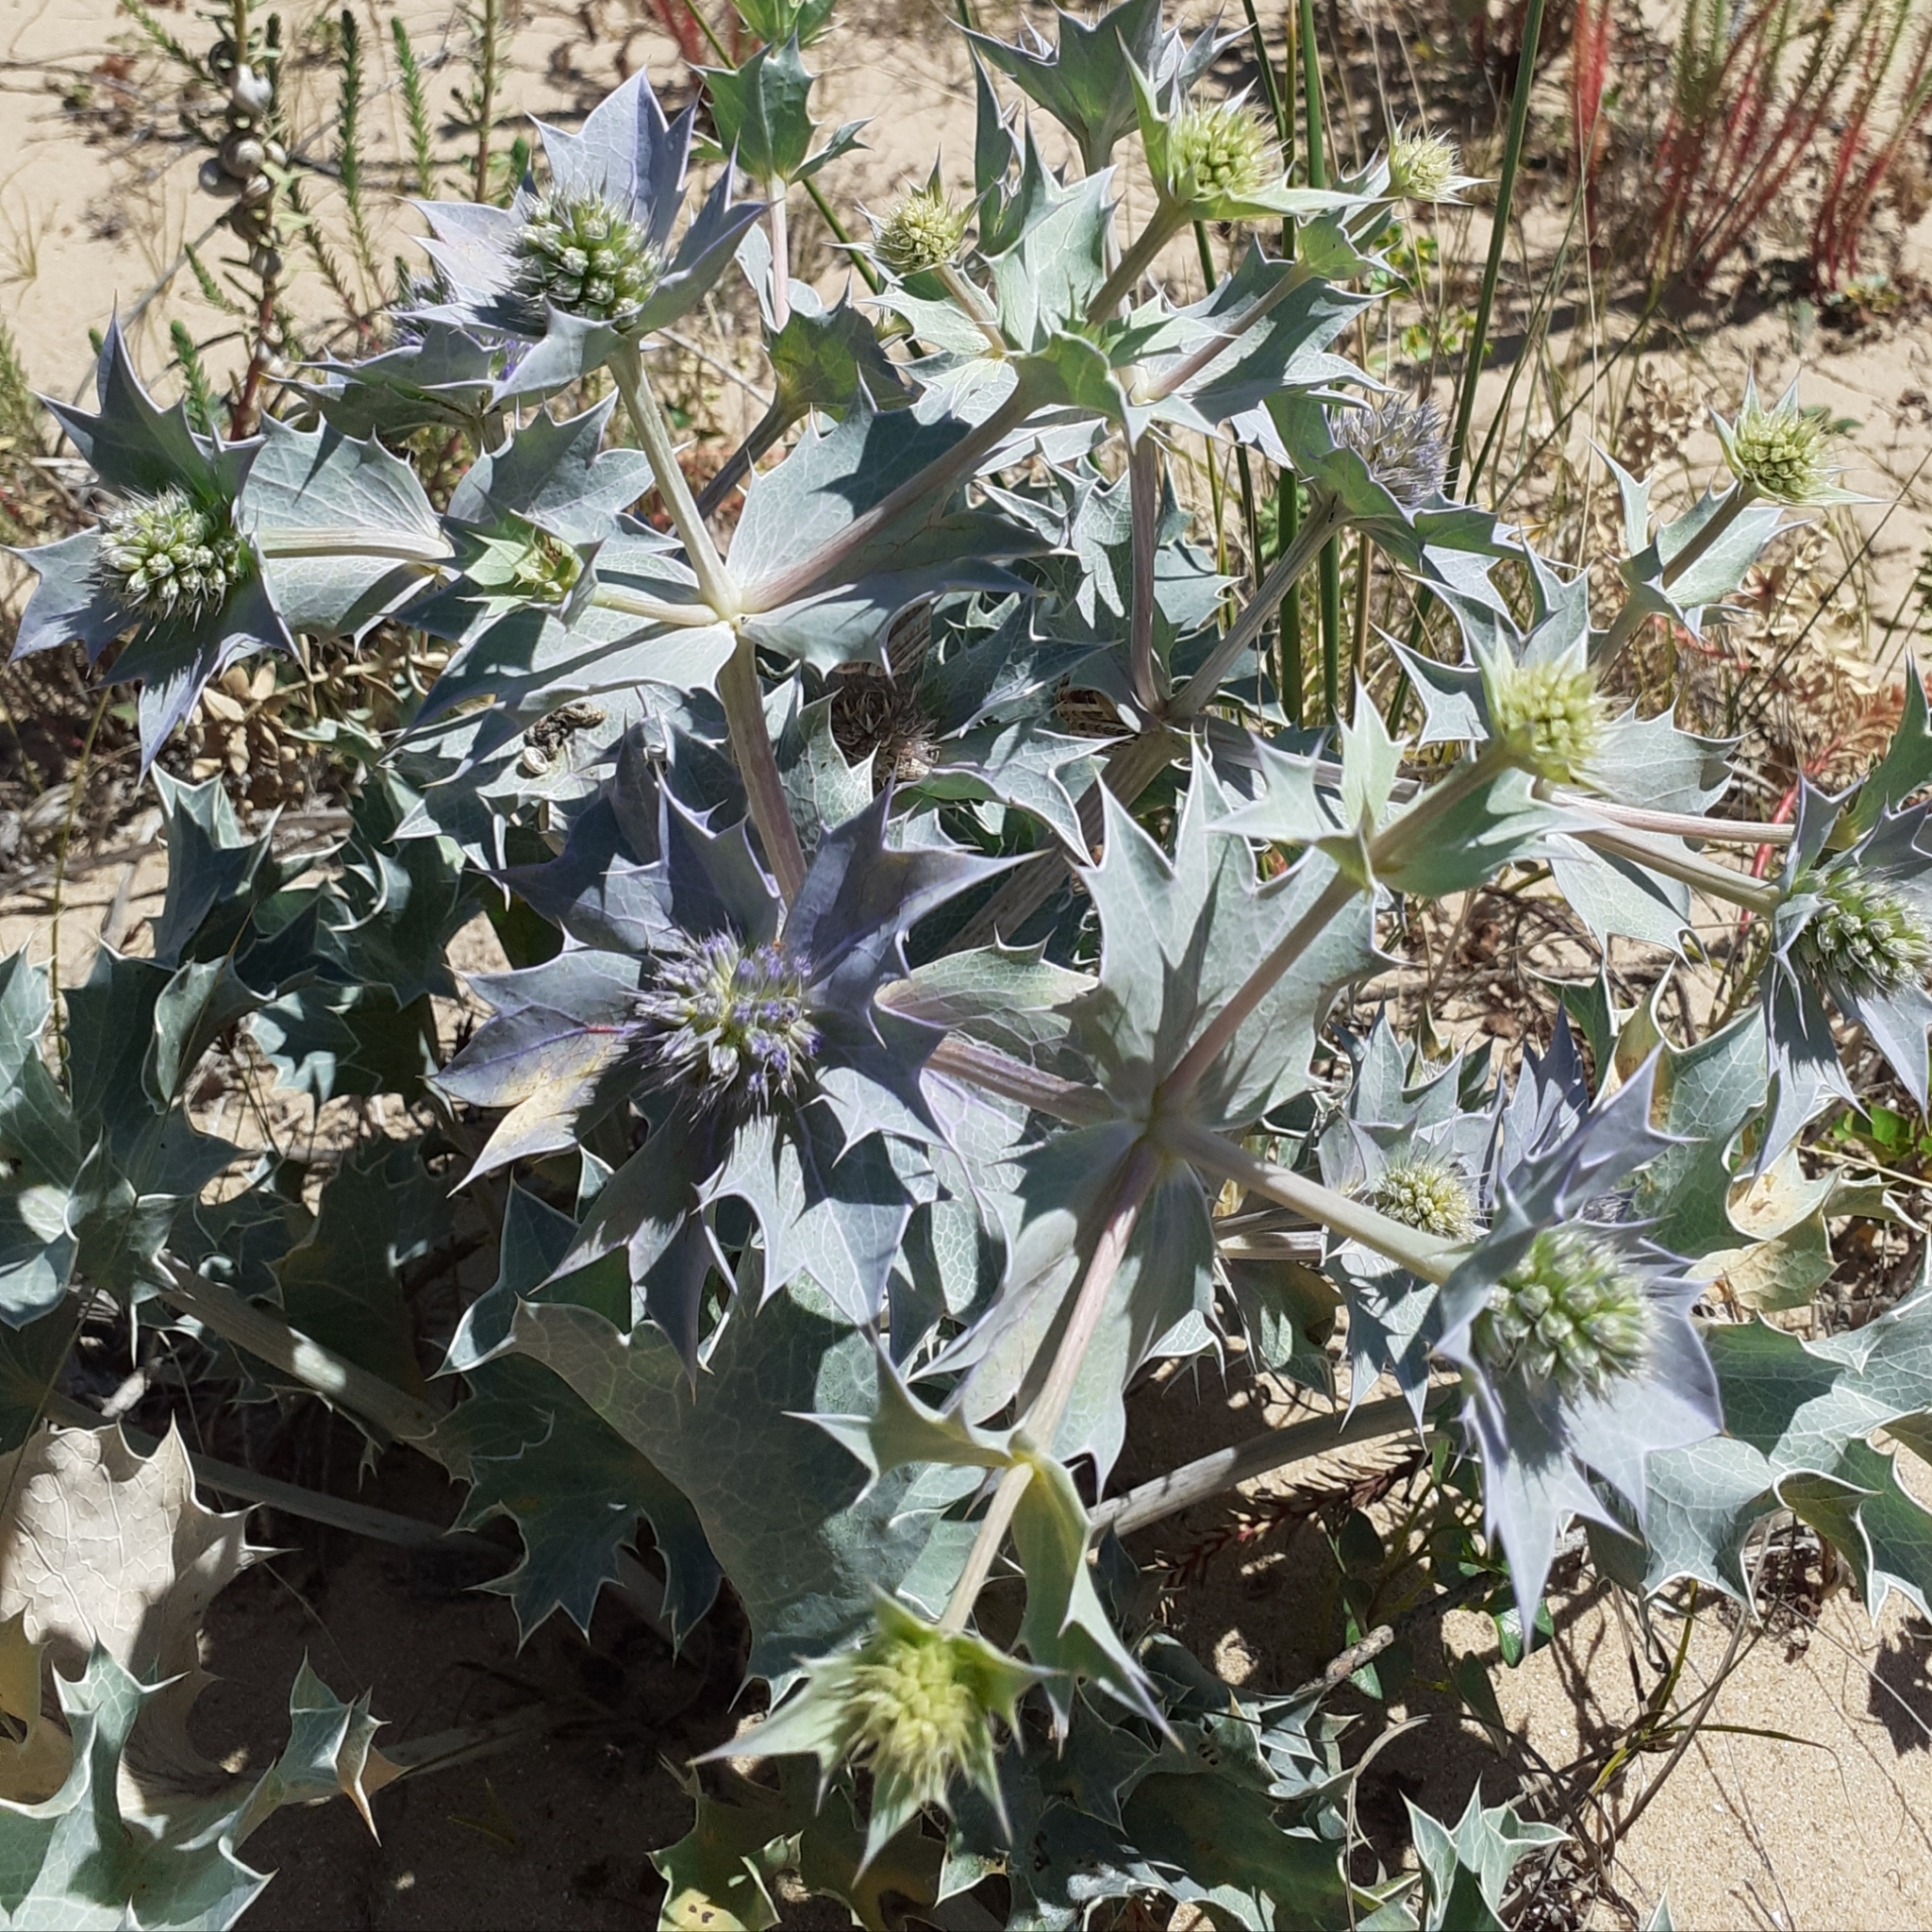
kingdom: Plantae
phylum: Tracheophyta
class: Magnoliopsida
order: Apiales
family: Apiaceae
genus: Eryngium
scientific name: Eryngium maritimum
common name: Sea-holly
